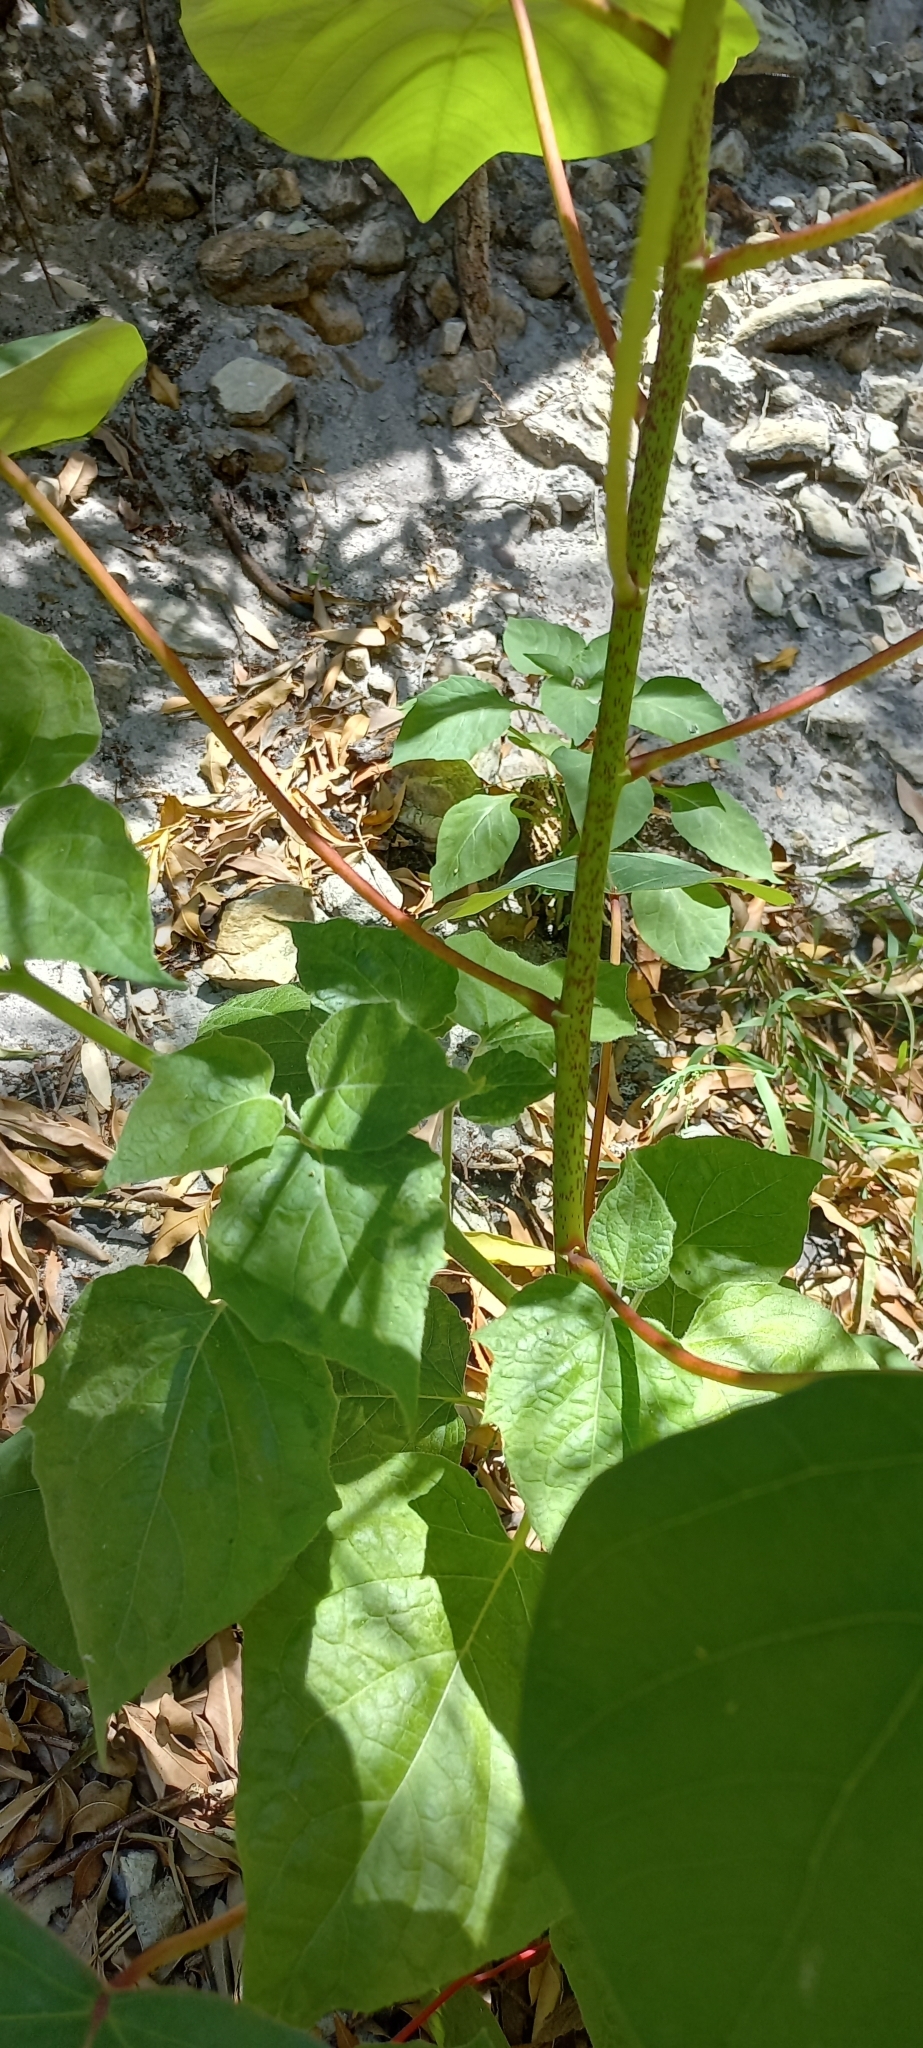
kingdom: Plantae
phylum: Tracheophyta
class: Magnoliopsida
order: Malpighiales
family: Euphorbiaceae
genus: Homalanthus
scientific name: Homalanthus populifolius
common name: Queensland poplar
